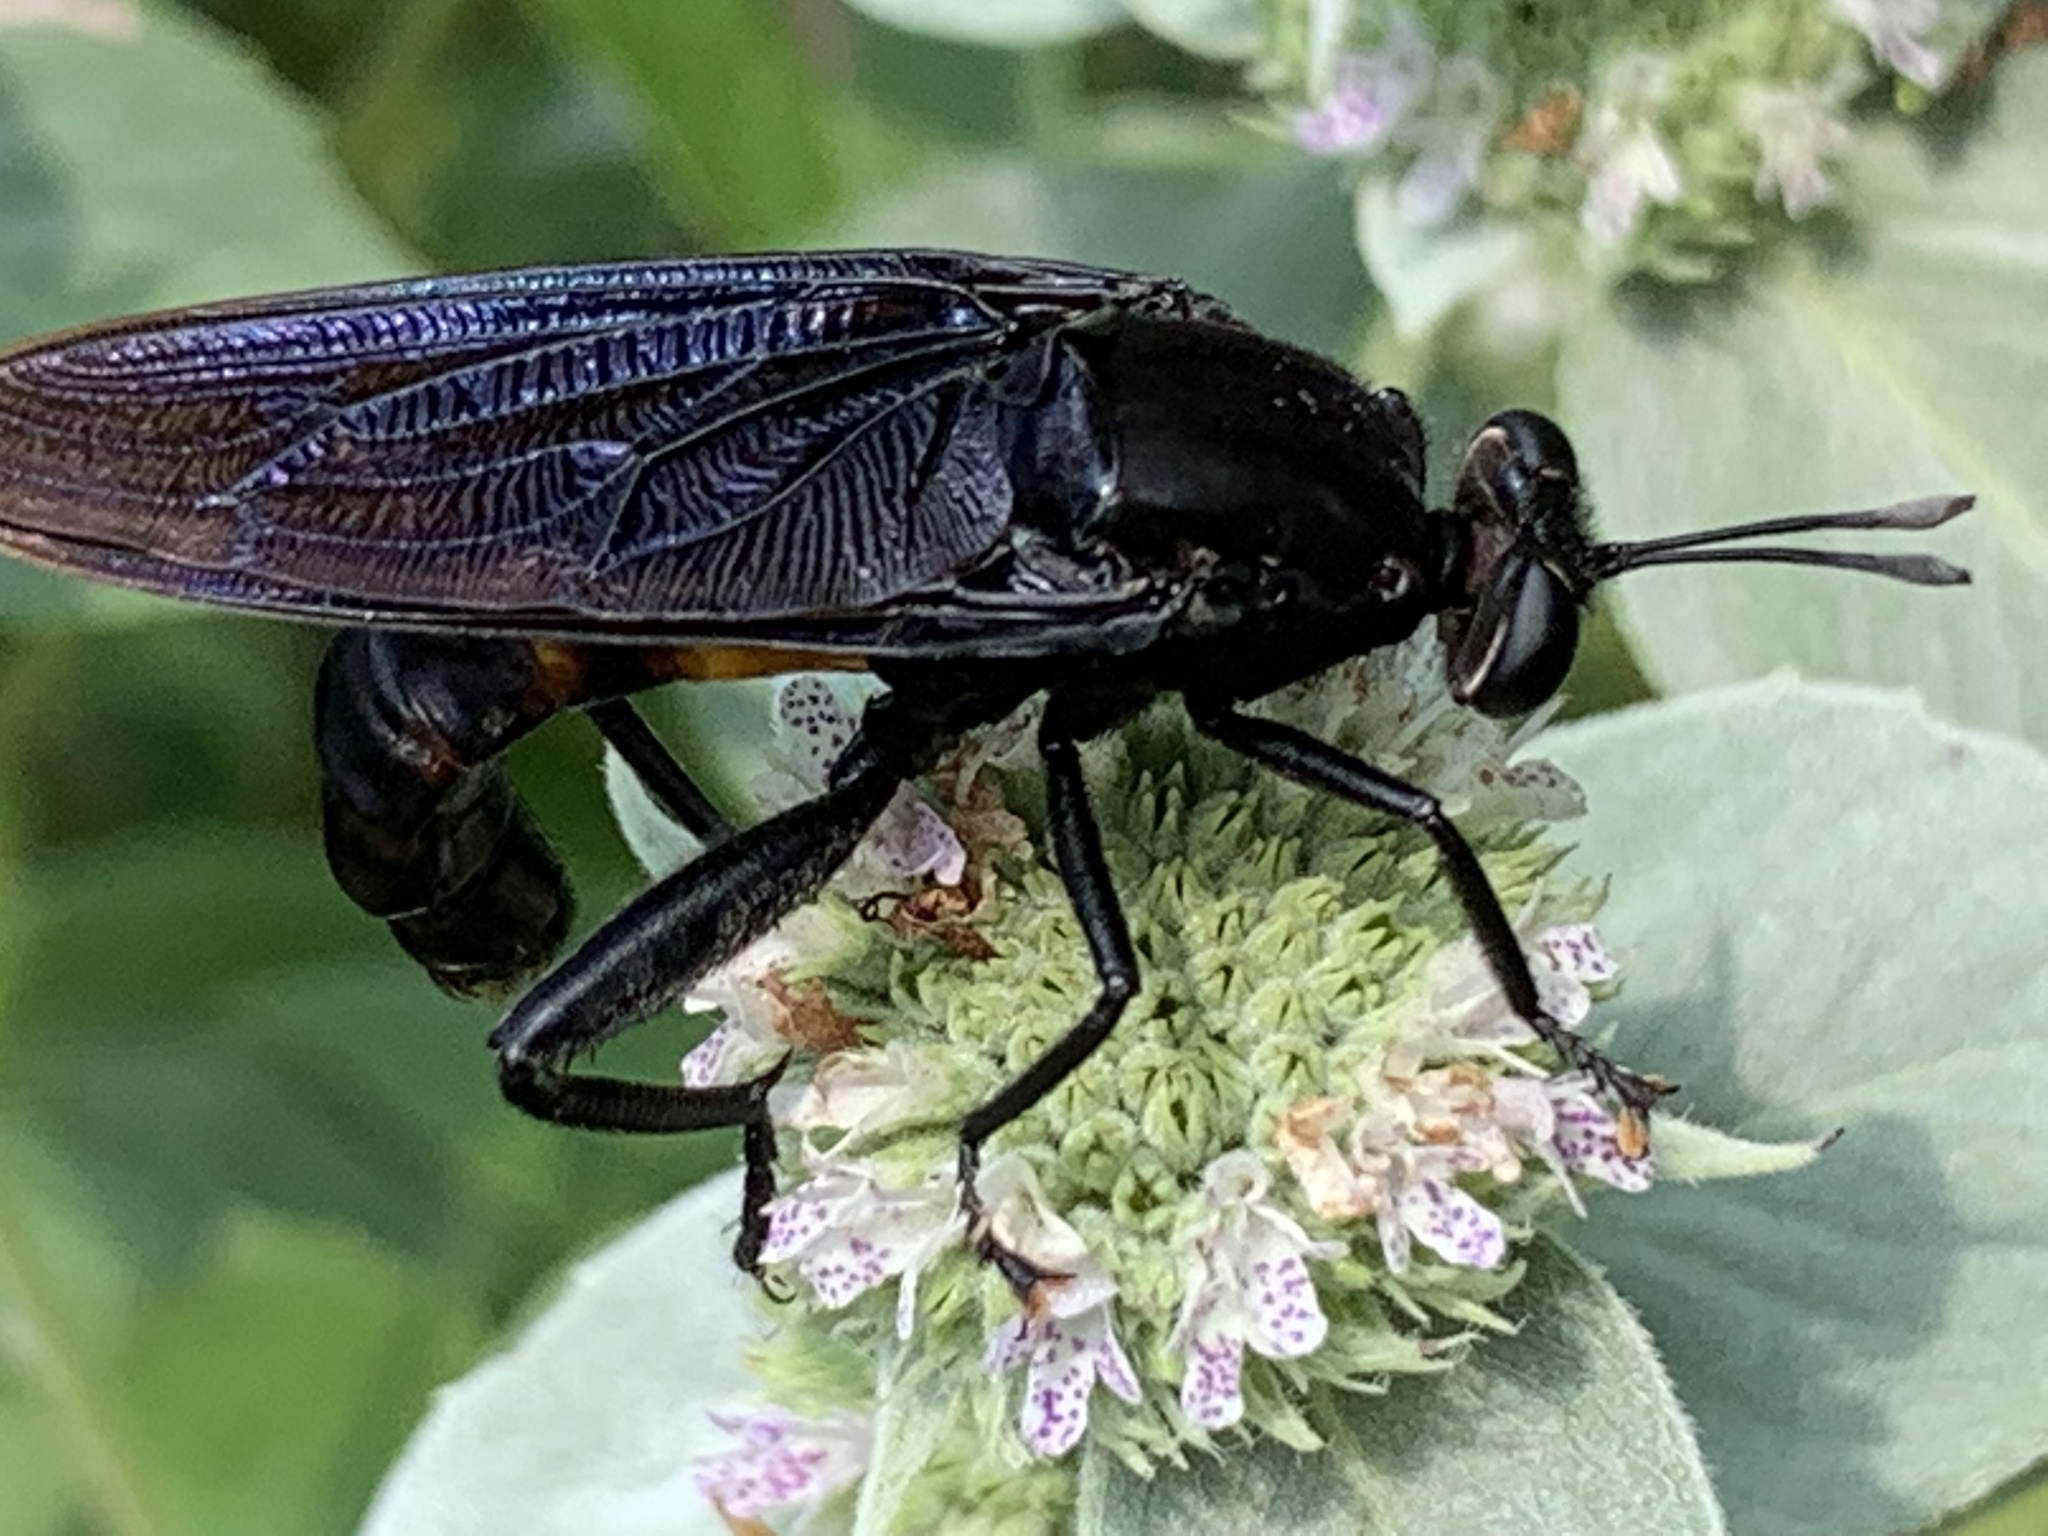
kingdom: Animalia
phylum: Arthropoda
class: Insecta
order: Diptera
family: Mydidae
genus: Mydas
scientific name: Mydas clavatus
